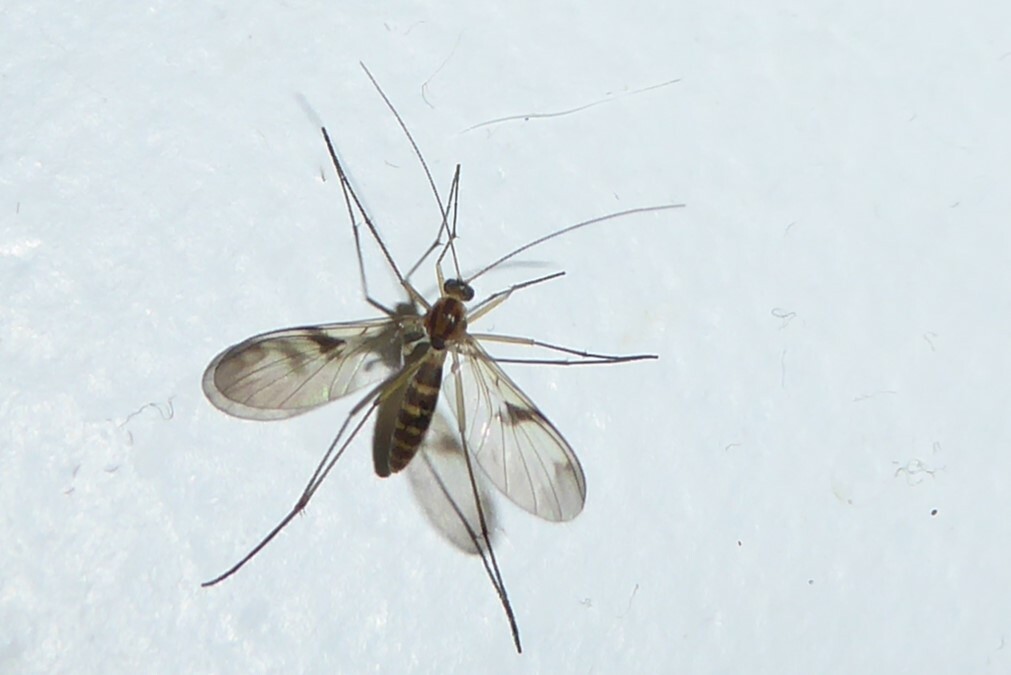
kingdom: Animalia
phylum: Arthropoda
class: Insecta
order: Diptera
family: Keroplatidae
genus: Macrocera
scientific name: Macrocera scoparia
